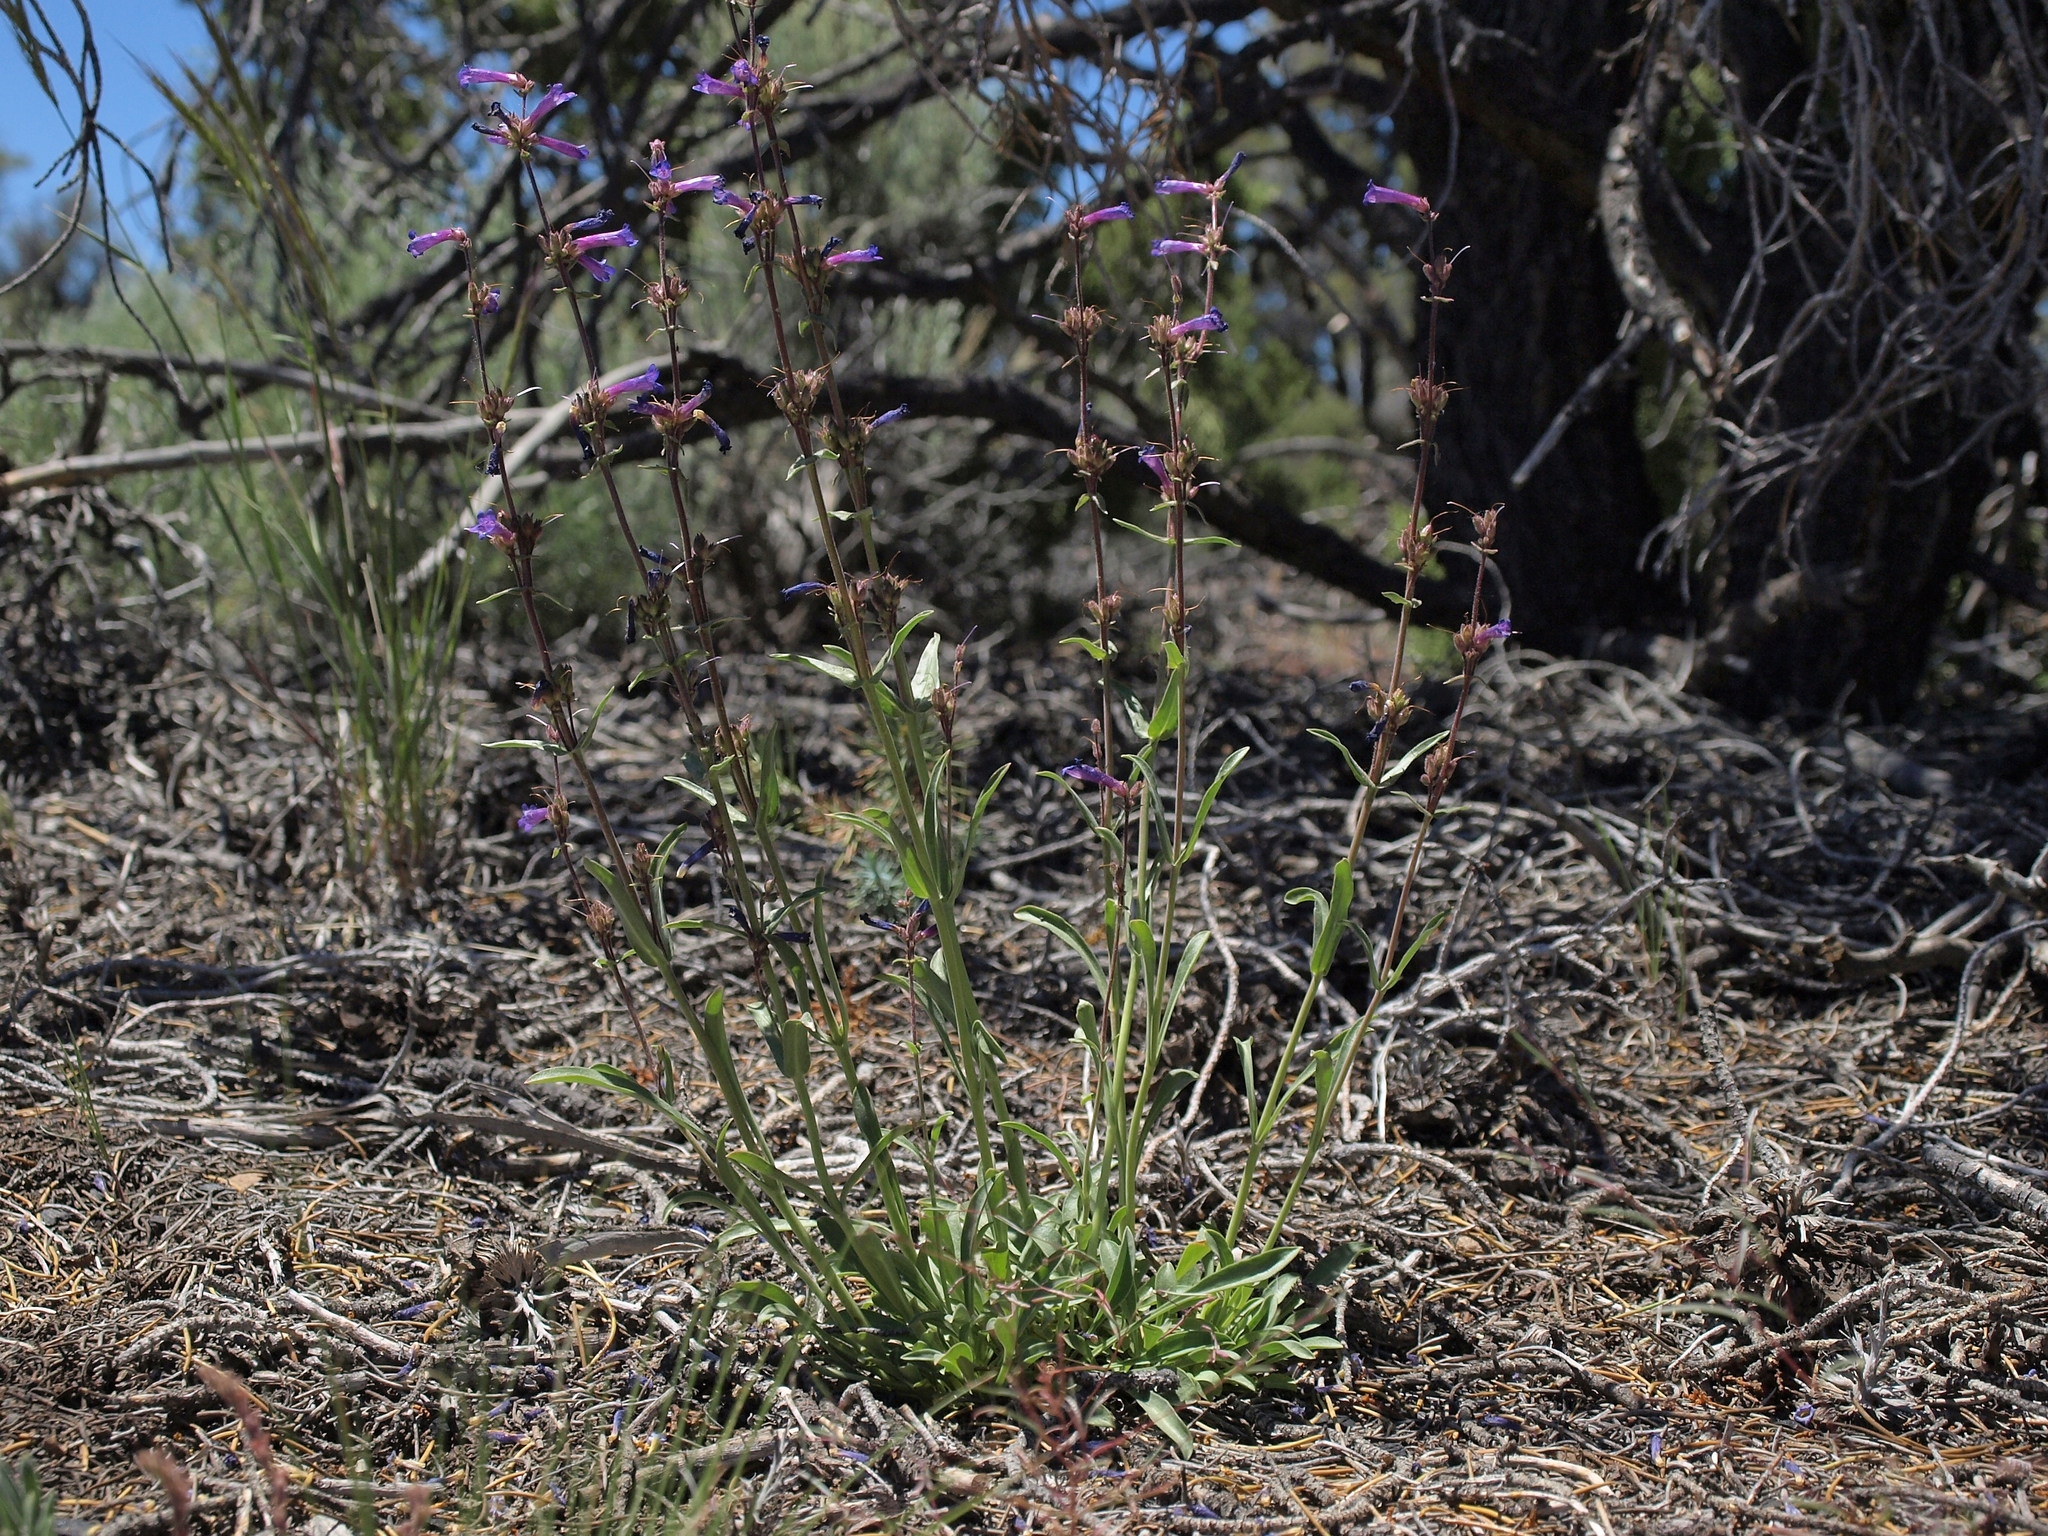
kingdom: Plantae
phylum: Tracheophyta
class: Magnoliopsida
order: Lamiales
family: Plantaginaceae
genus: Penstemon
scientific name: Penstemon humilis
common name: Low penstemon
